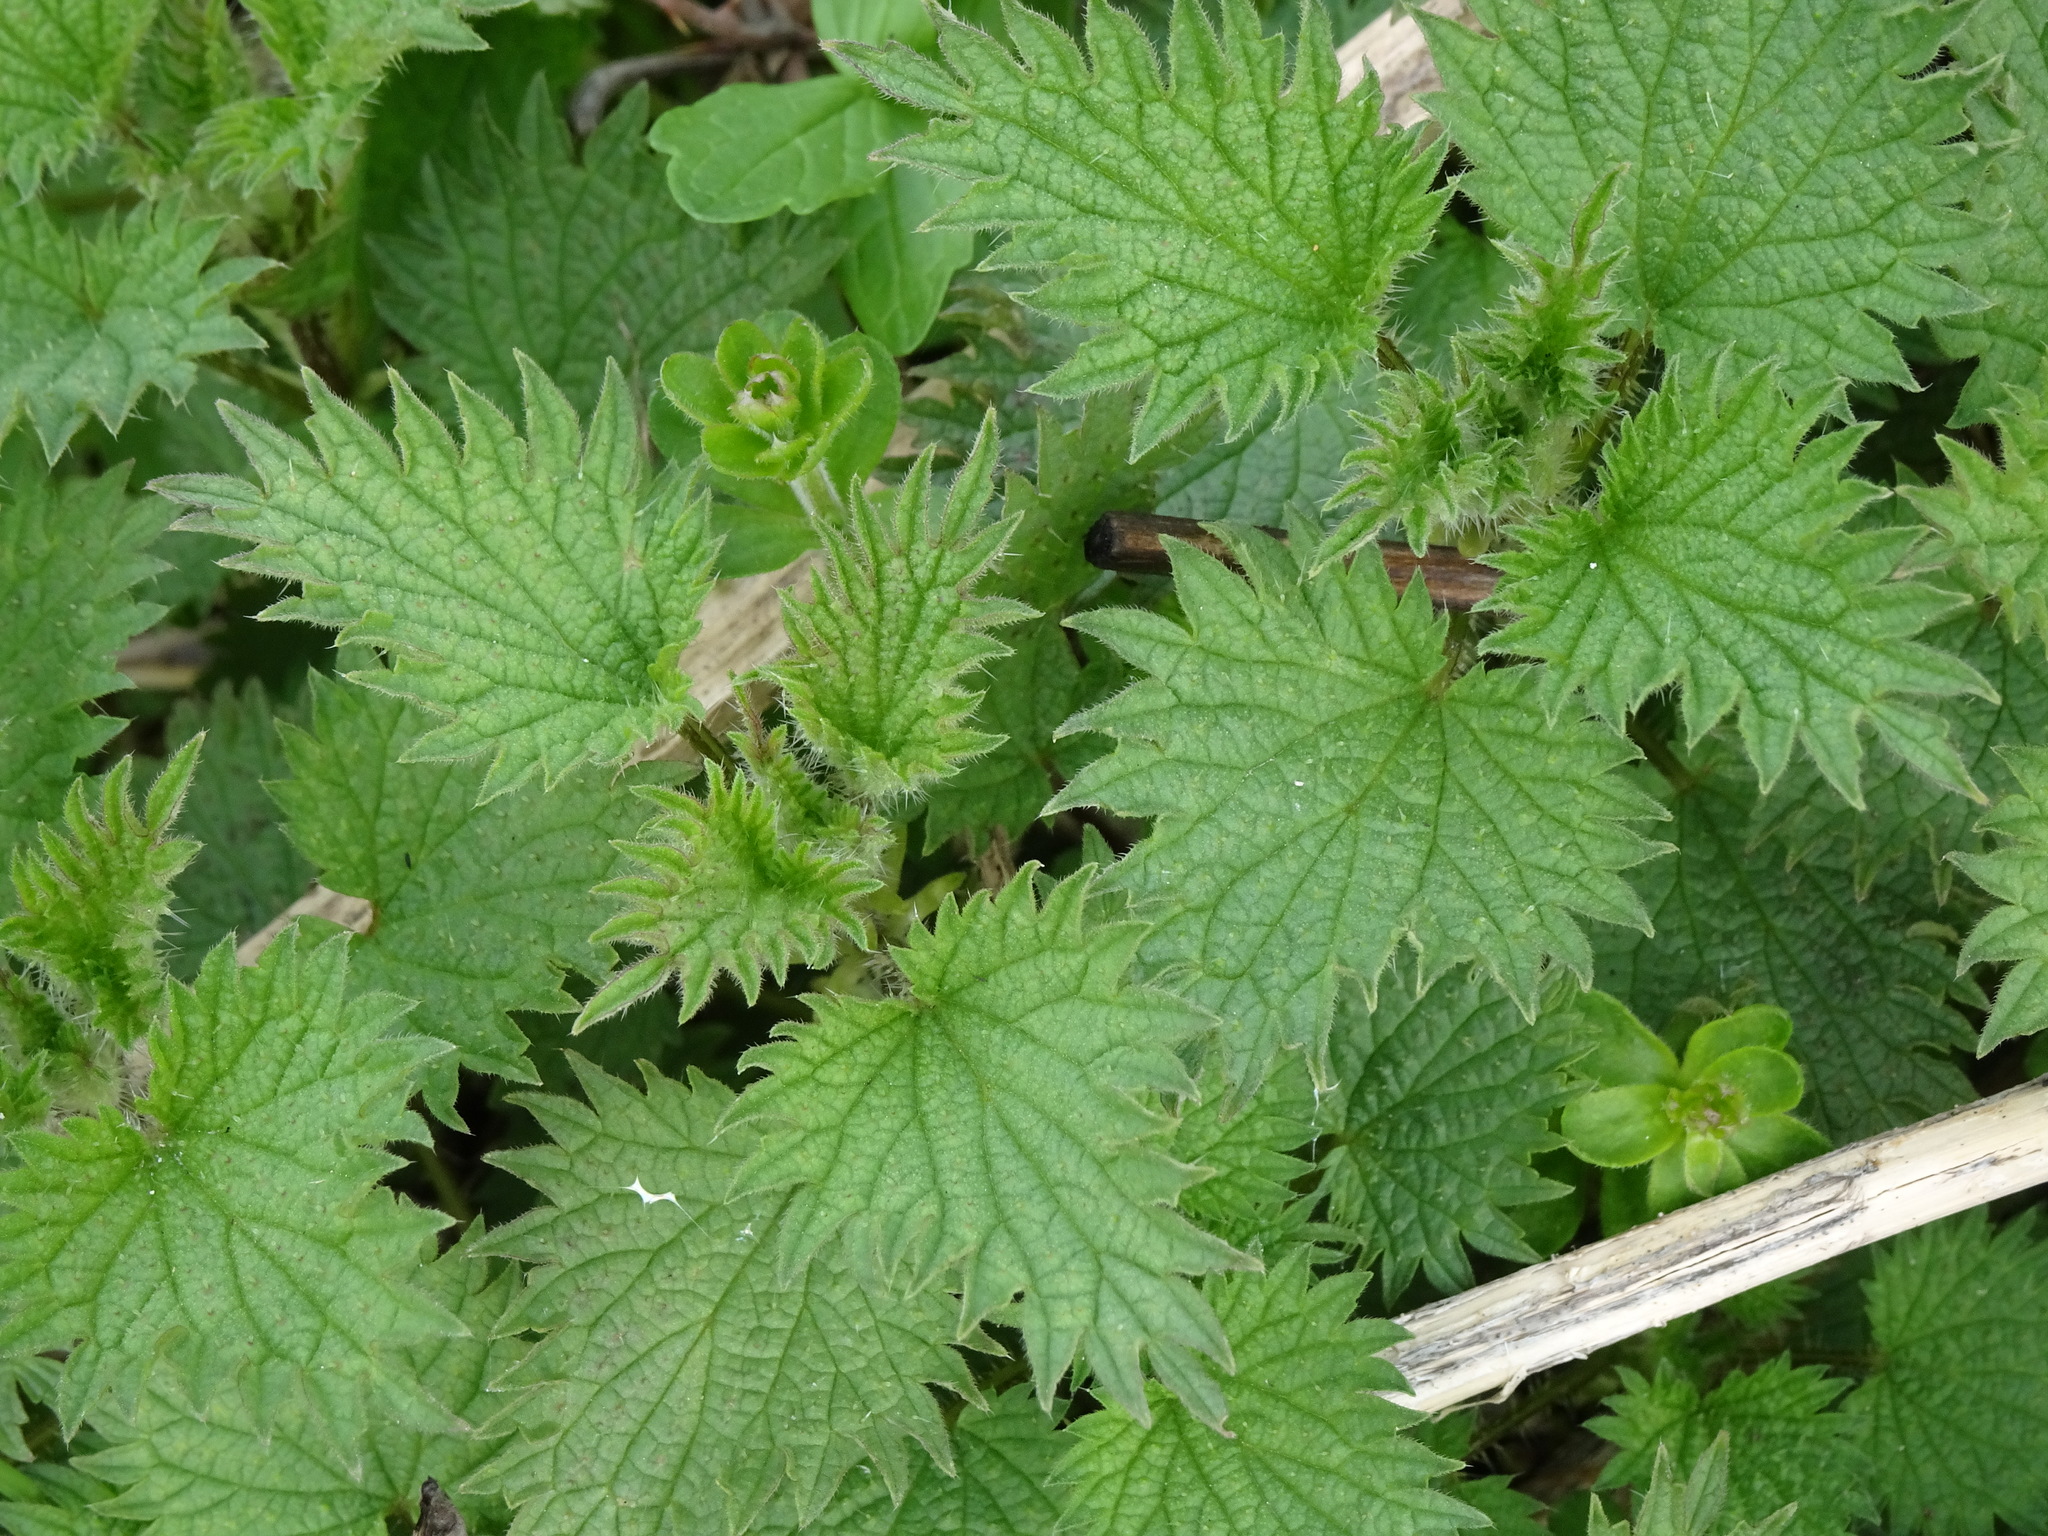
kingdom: Plantae
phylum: Tracheophyta
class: Magnoliopsida
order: Rosales
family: Urticaceae
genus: Urtica
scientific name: Urtica dioica
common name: Common nettle
